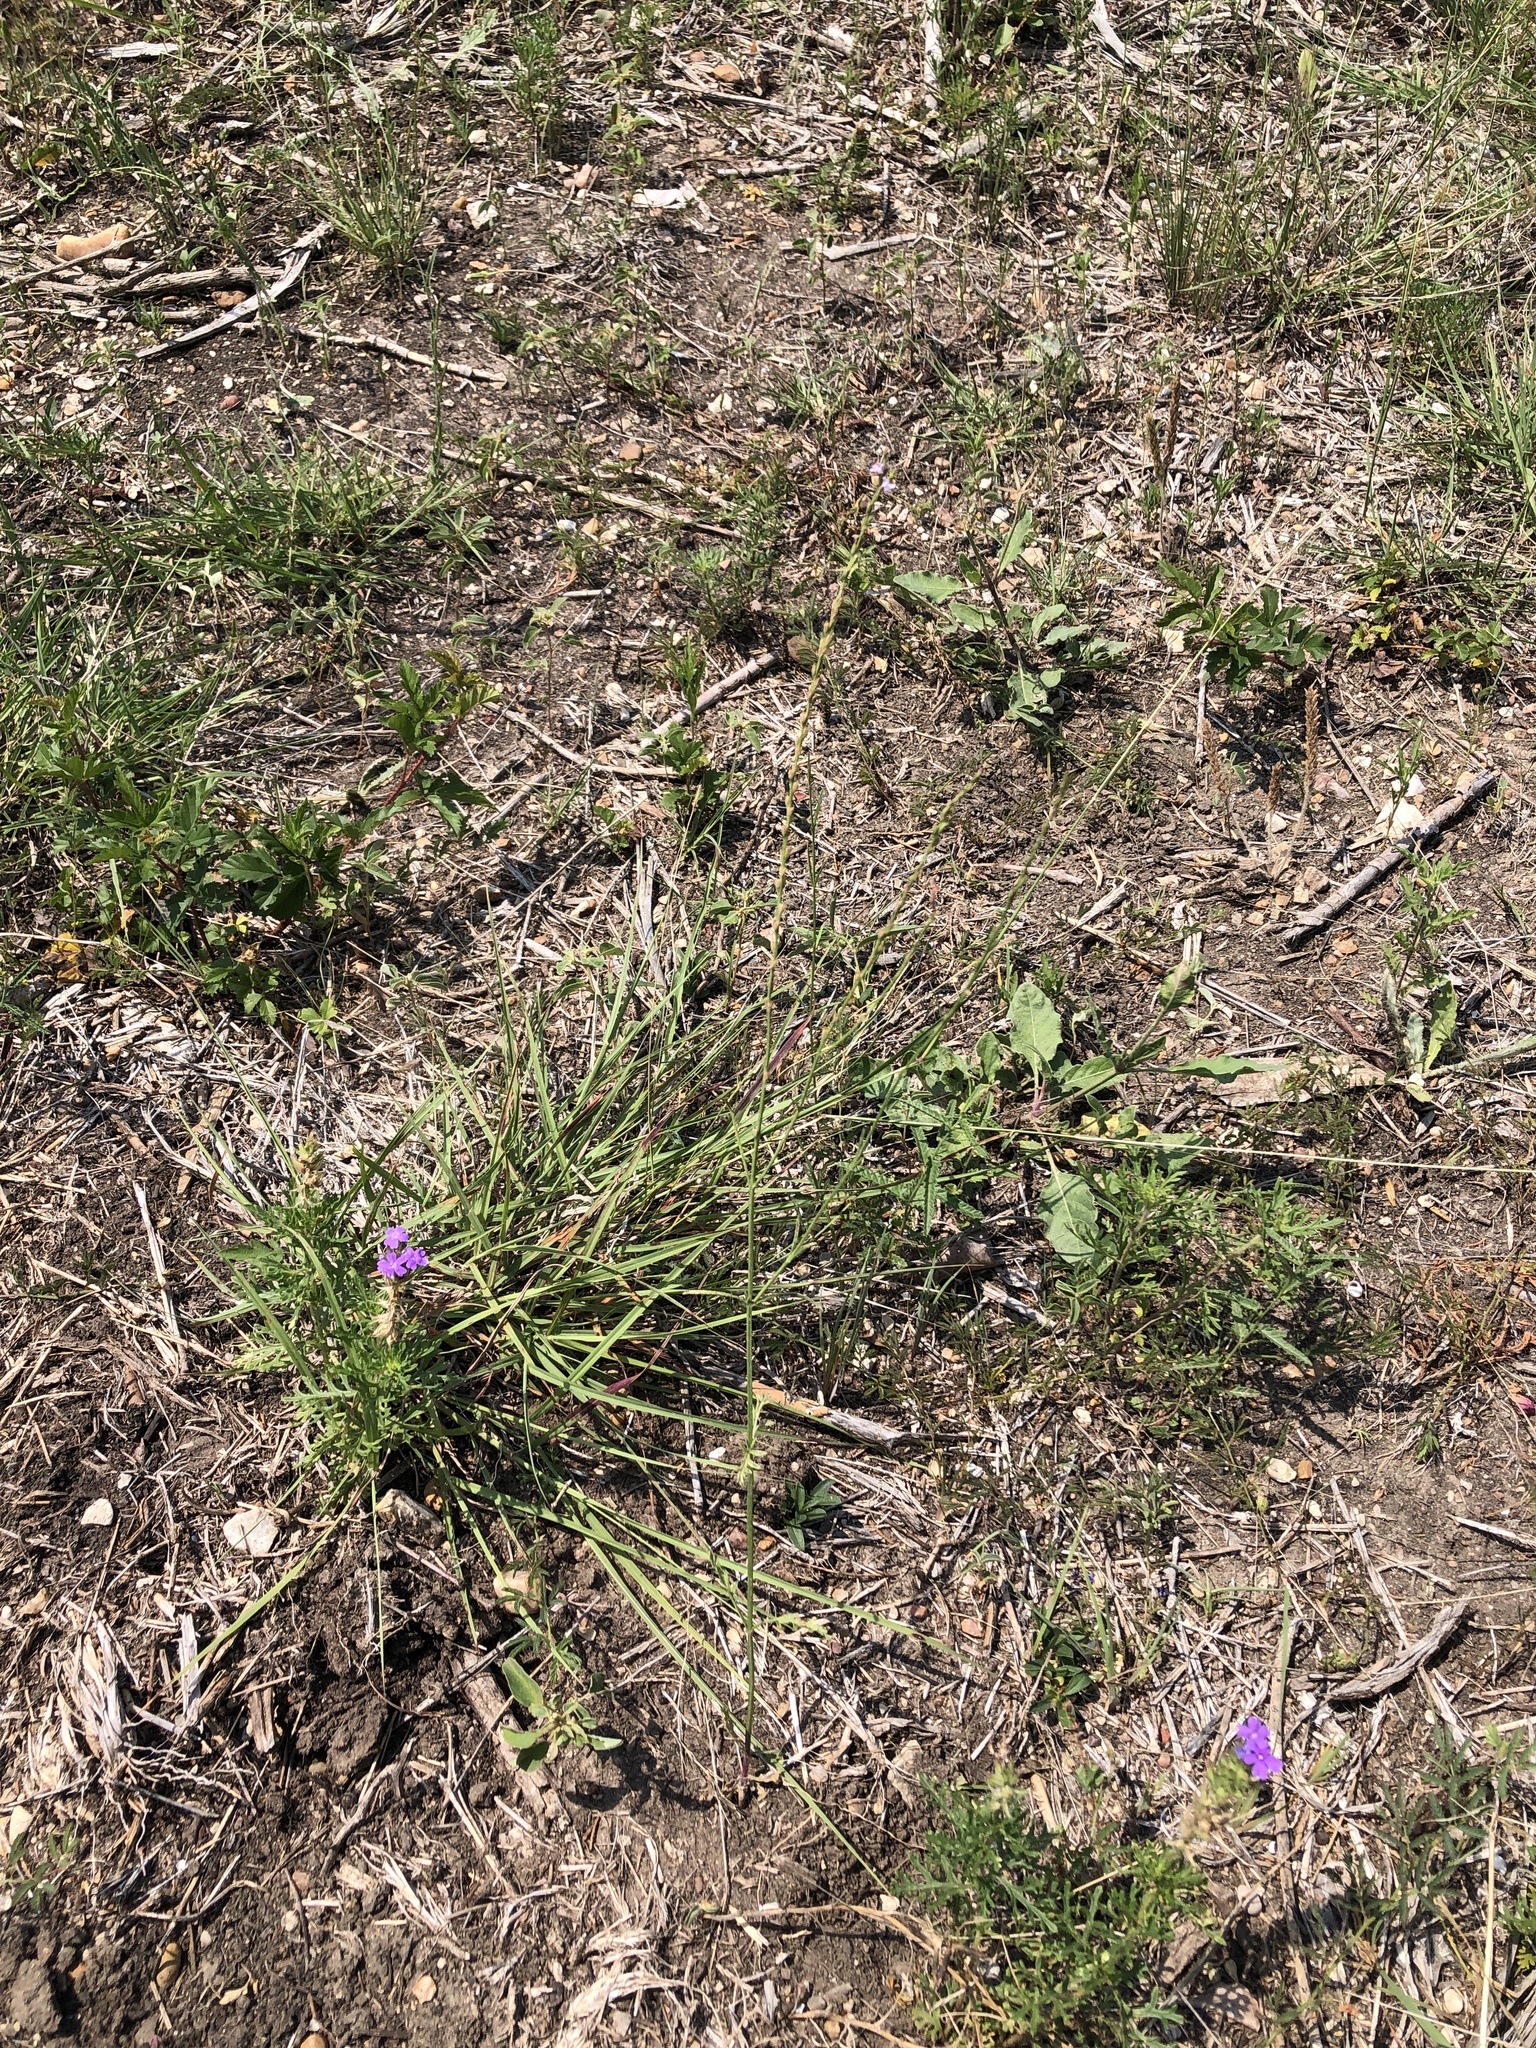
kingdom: Plantae
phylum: Tracheophyta
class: Magnoliopsida
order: Lamiales
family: Verbenaceae
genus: Verbena
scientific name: Verbena halei
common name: Texas vervain
